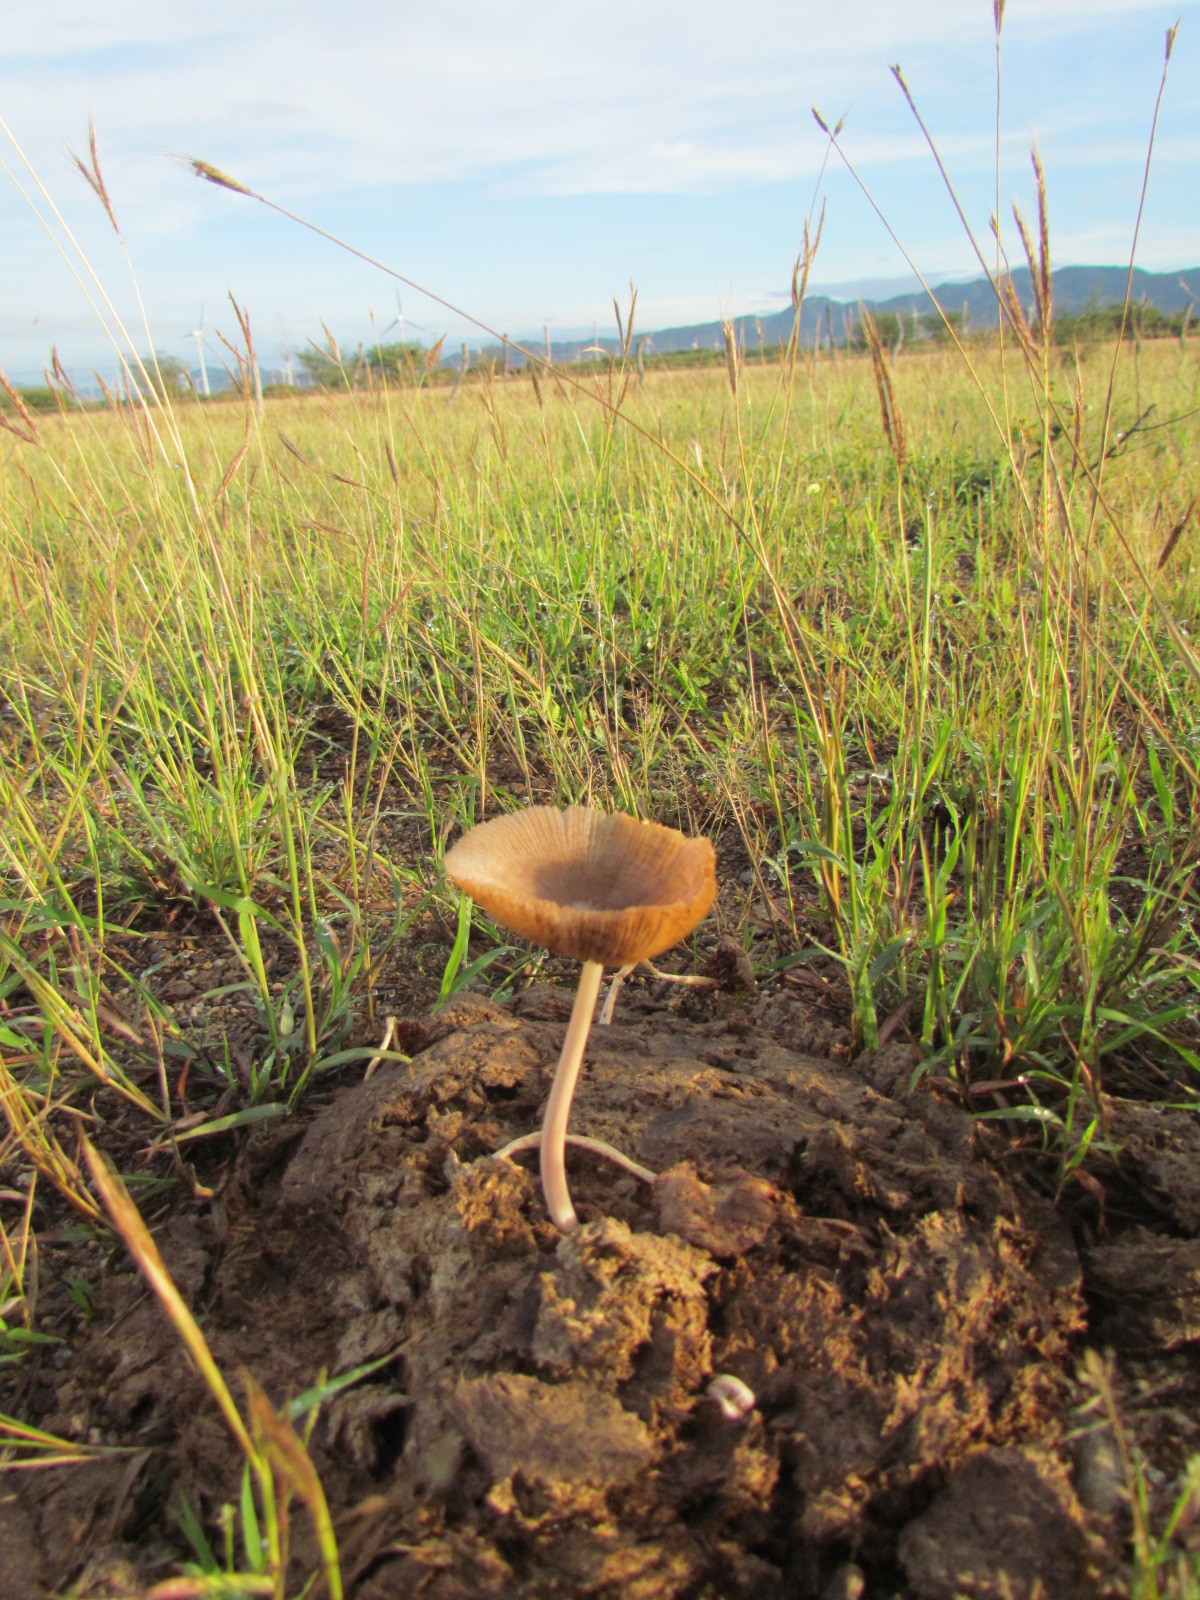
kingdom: Fungi
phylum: Basidiomycota
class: Agaricomycetes
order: Agaricales
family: Bolbitiaceae
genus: Bolbitius
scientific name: Bolbitius coprophilus
